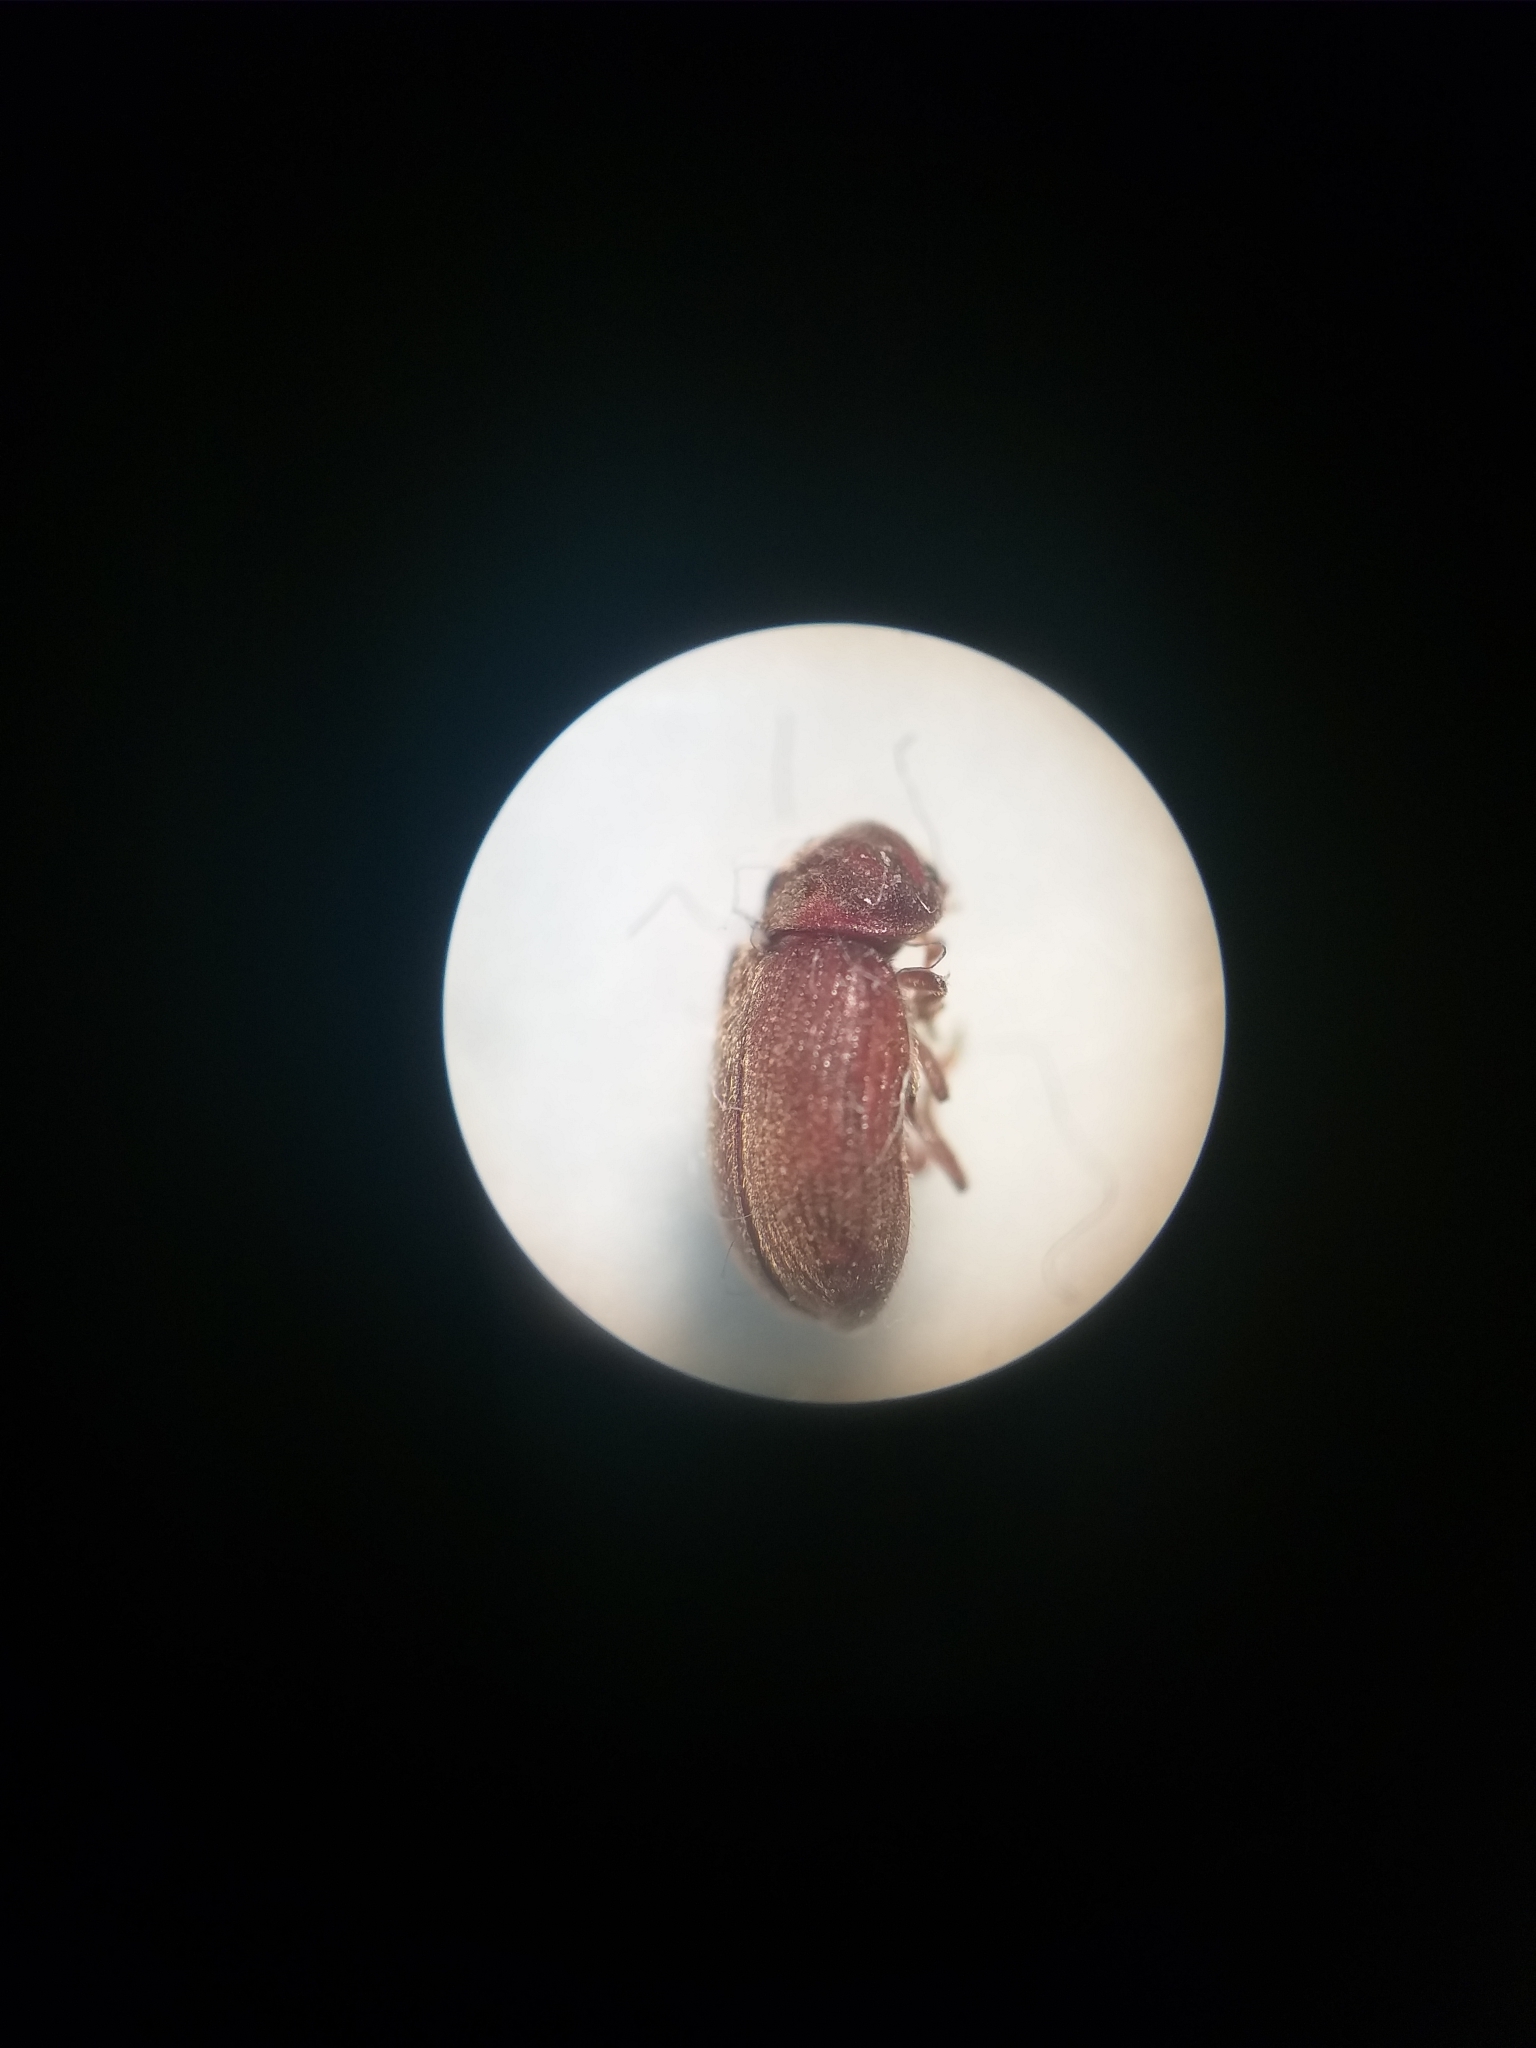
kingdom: Animalia
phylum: Arthropoda
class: Insecta
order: Coleoptera
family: Anobiidae
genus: Stegobium
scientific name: Stegobium paniceum
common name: Drugstore beetle
